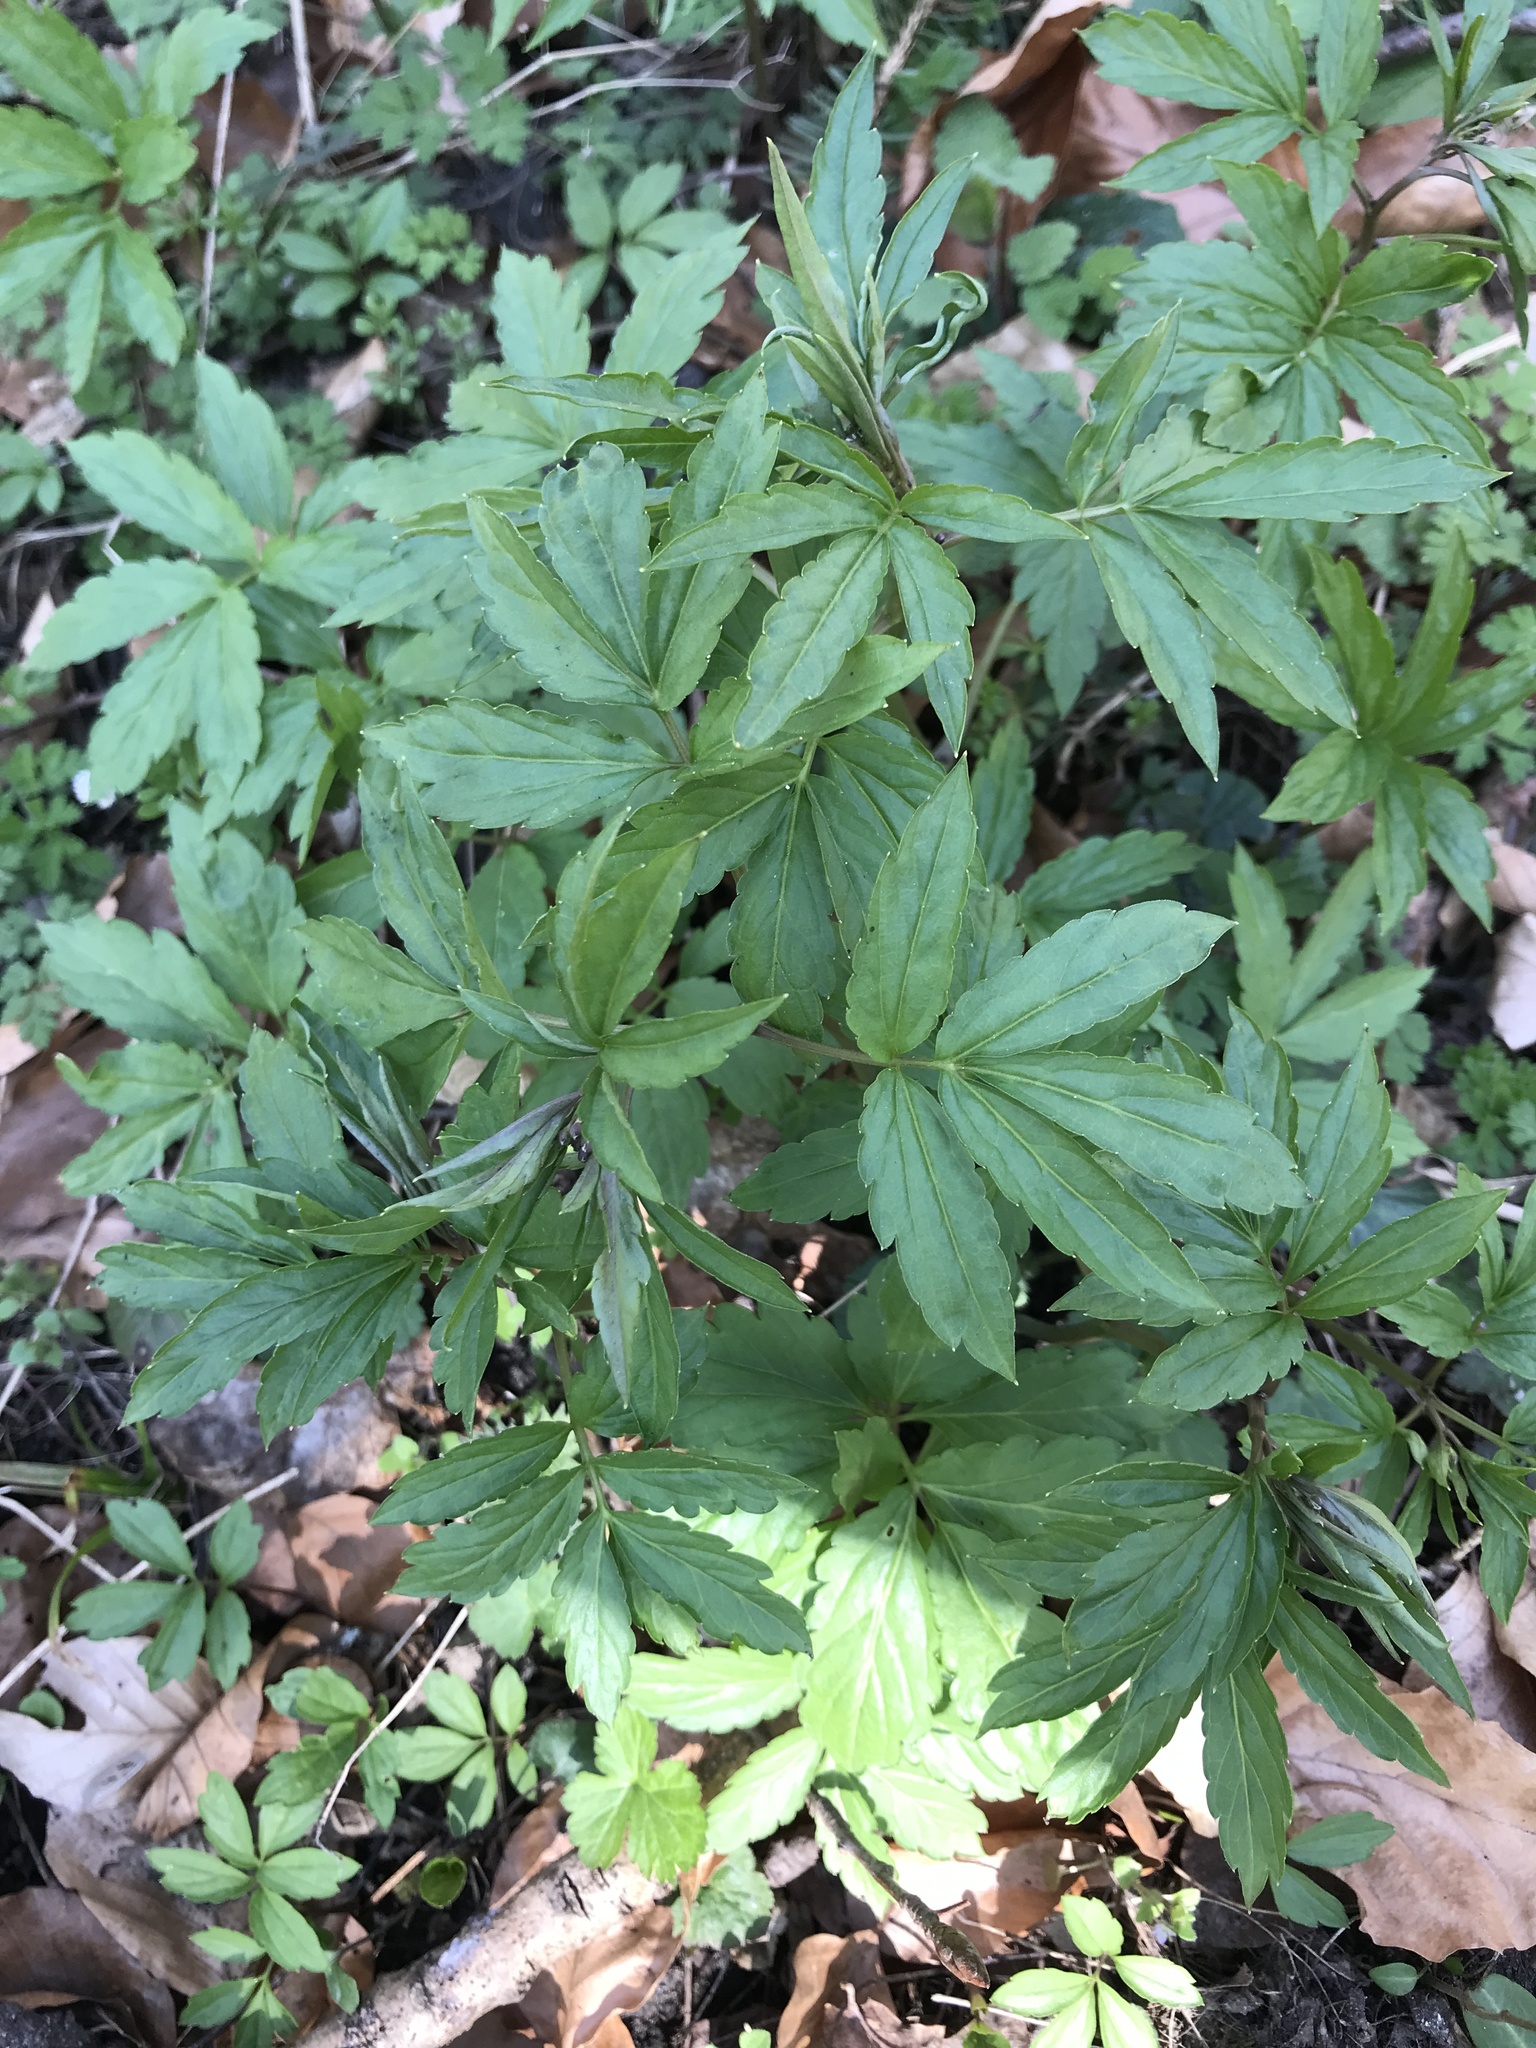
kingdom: Plantae
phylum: Tracheophyta
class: Magnoliopsida
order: Brassicales
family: Brassicaceae
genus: Cardamine
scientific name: Cardamine bulbifera
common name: Coralroot bittercress
